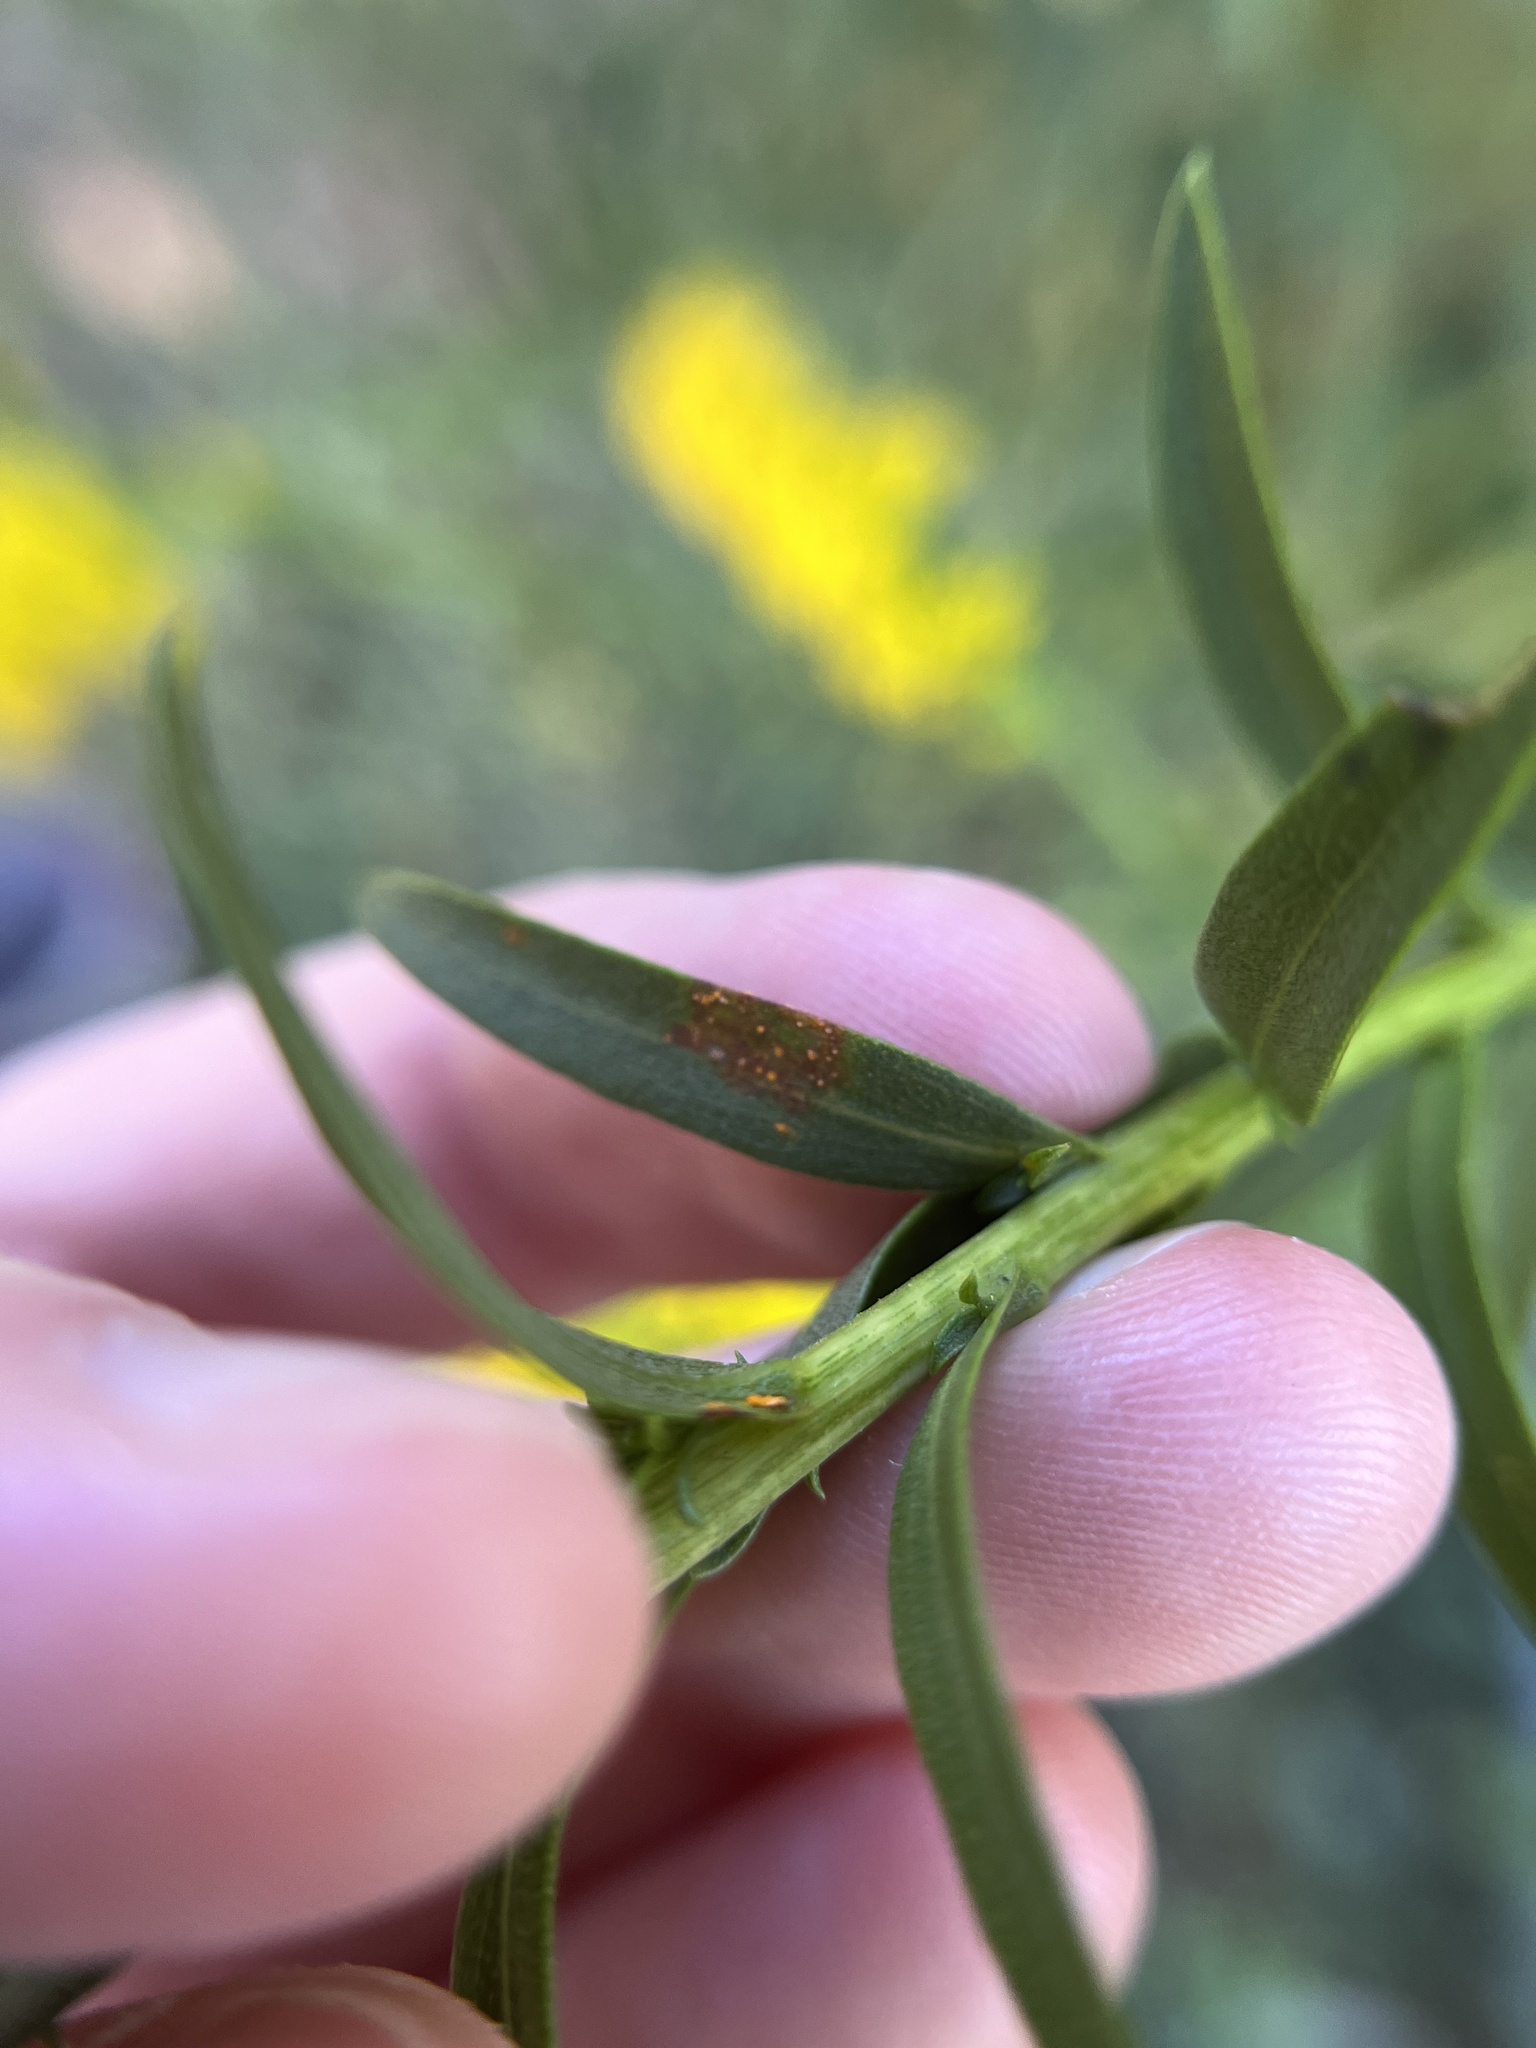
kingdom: Fungi
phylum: Basidiomycota
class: Pucciniomycetes
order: Pucciniales
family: Coleosporiaceae
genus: Coleosporium
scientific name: Coleosporium asterum
